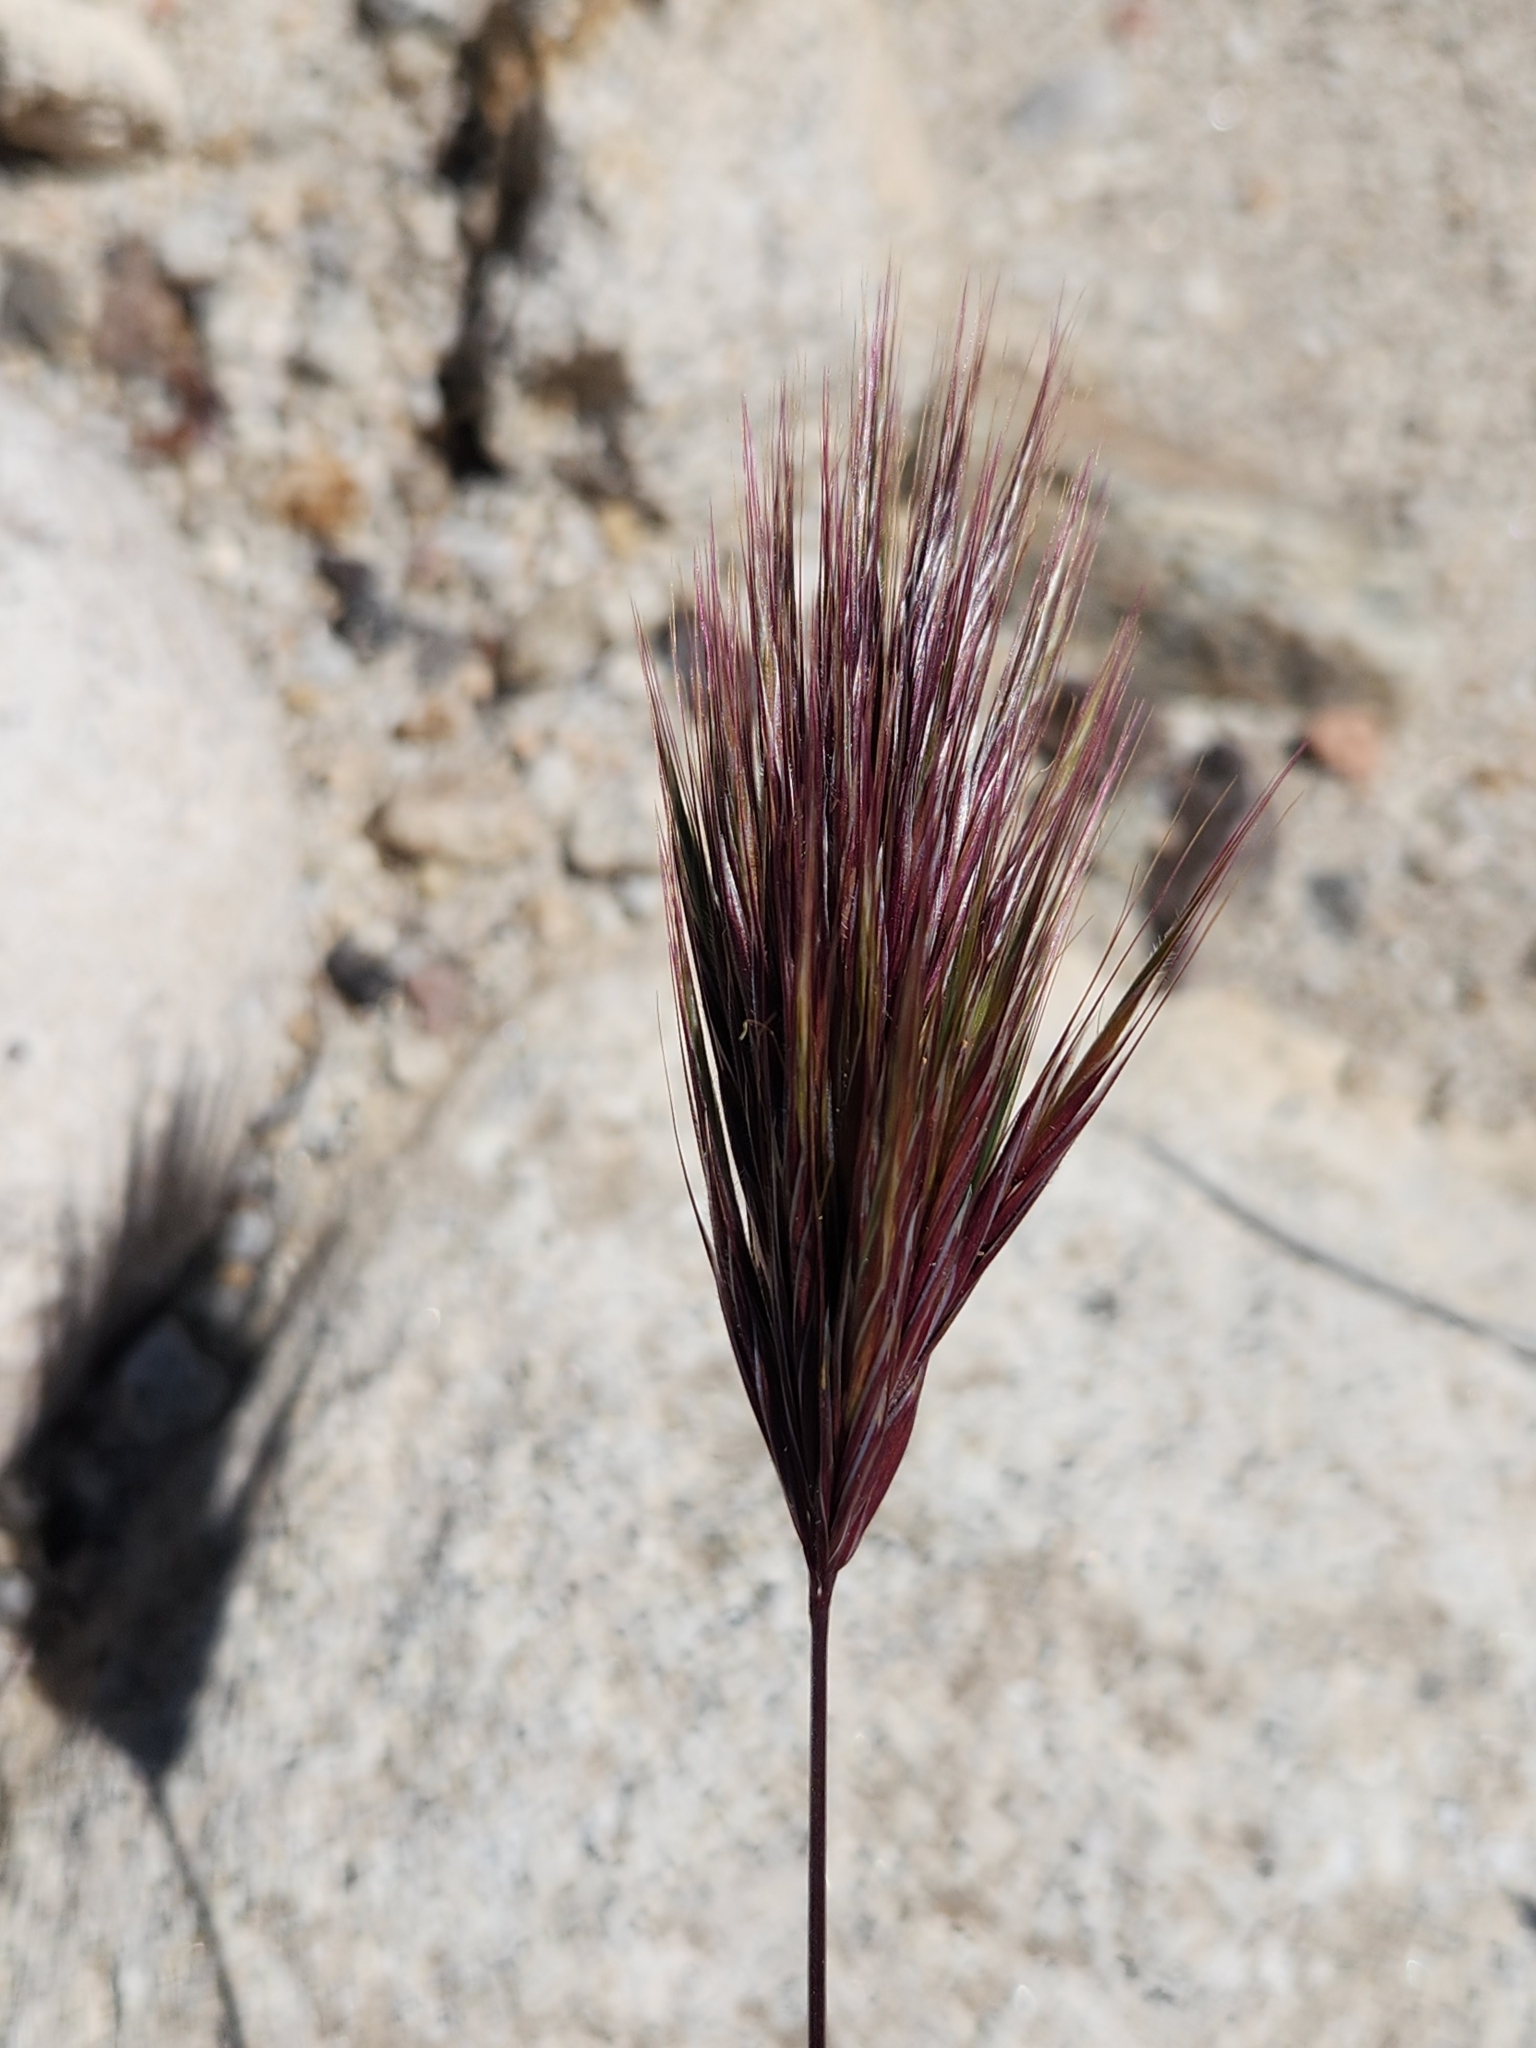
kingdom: Plantae
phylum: Tracheophyta
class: Liliopsida
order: Poales
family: Poaceae
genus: Bromus
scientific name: Bromus rubens
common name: Red brome
